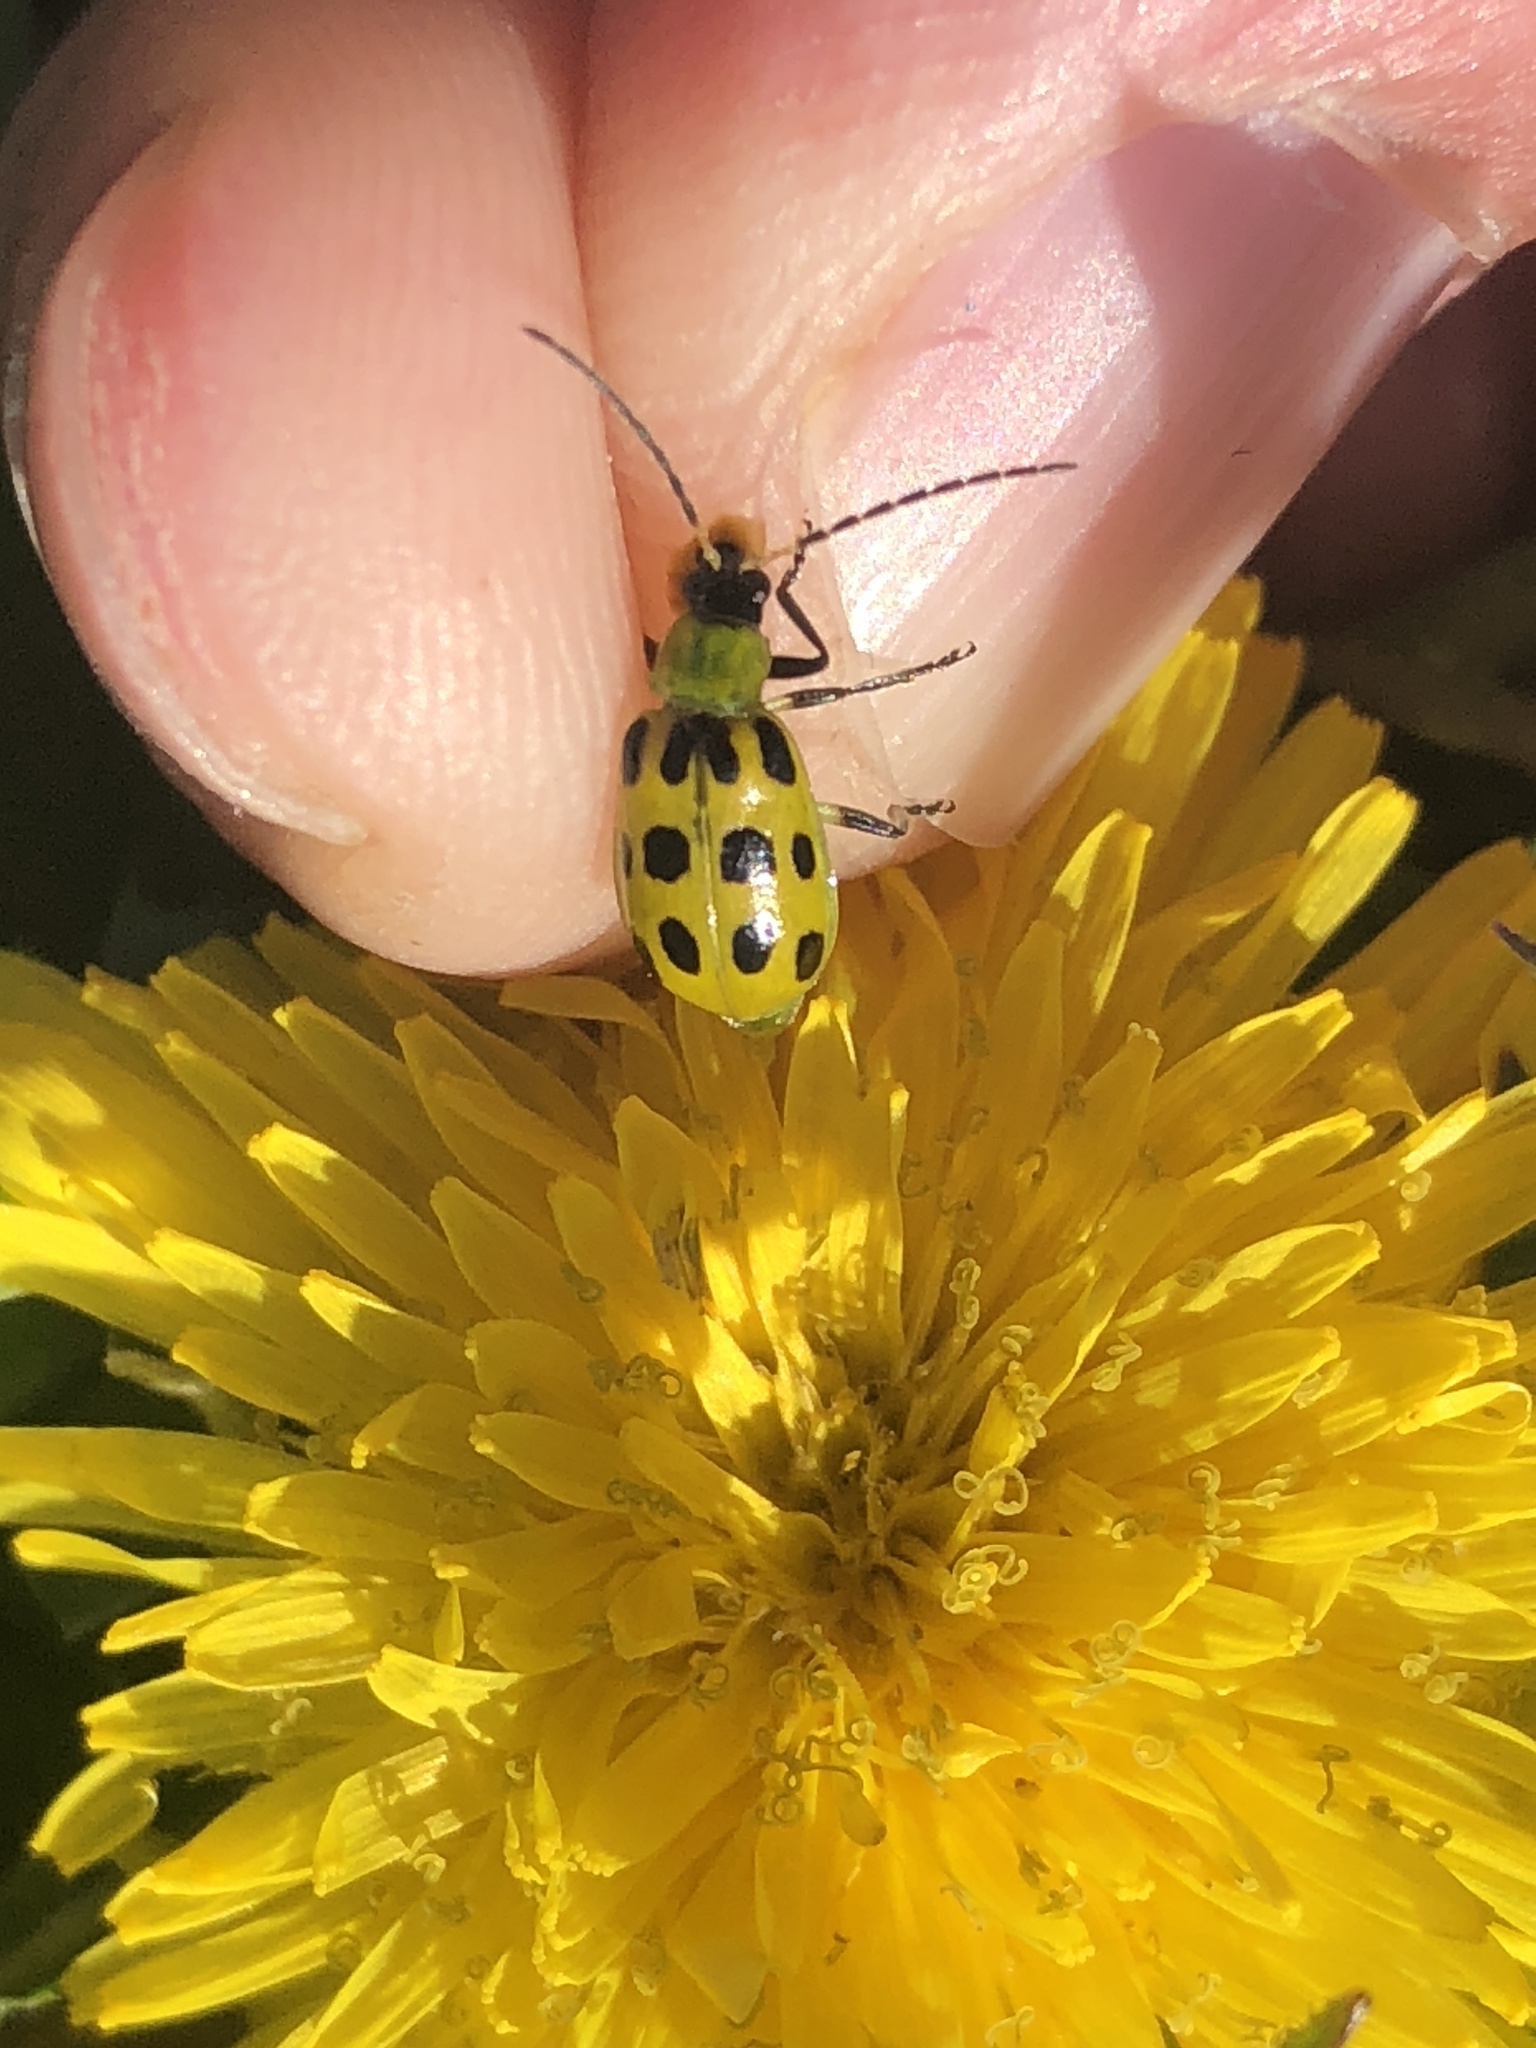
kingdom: Animalia
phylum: Arthropoda
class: Insecta
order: Coleoptera
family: Chrysomelidae
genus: Diabrotica
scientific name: Diabrotica undecimpunctata
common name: Spotted cucumber beetle
